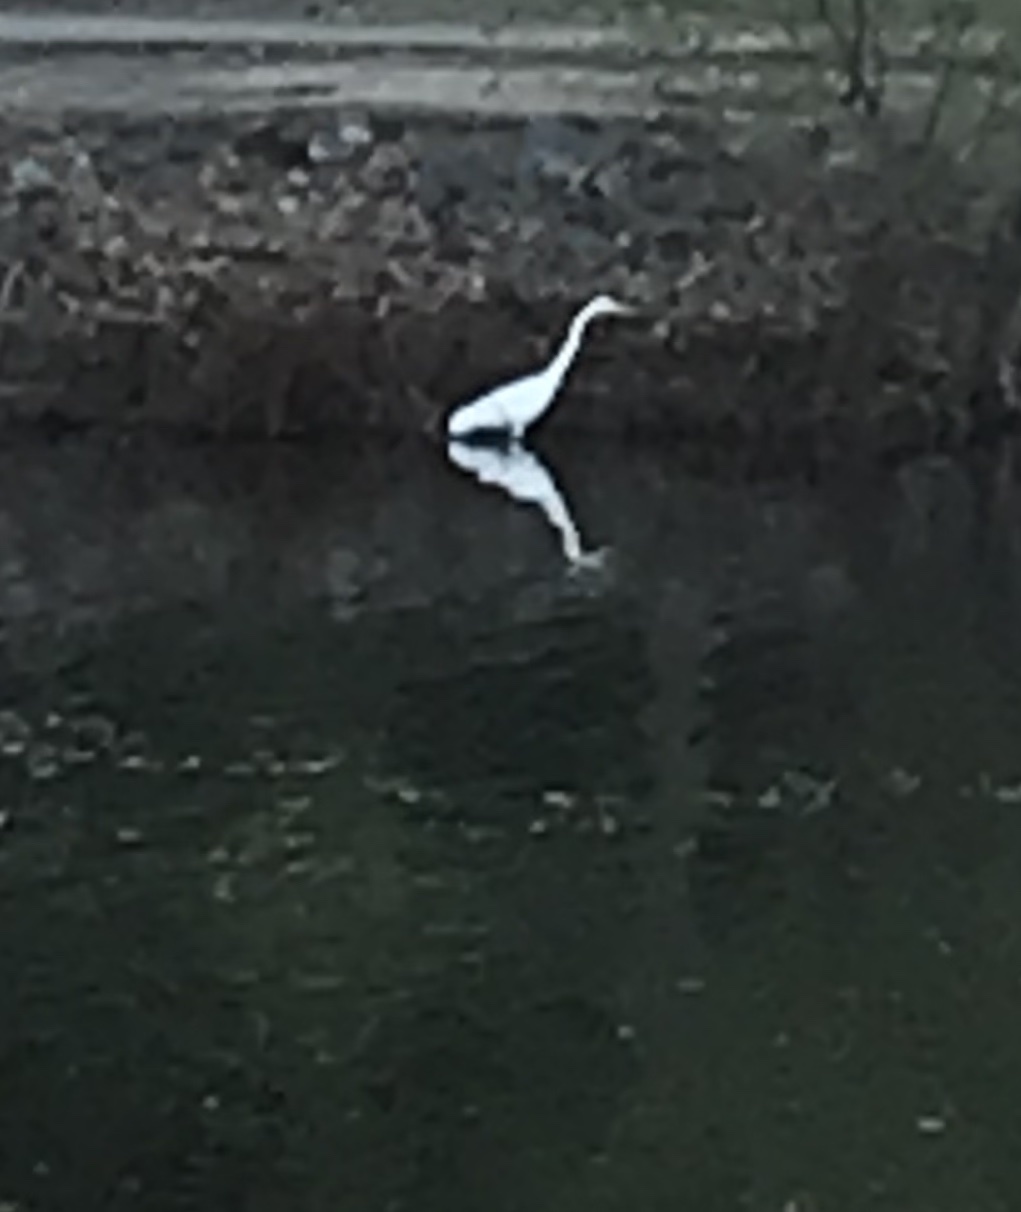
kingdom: Animalia
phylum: Chordata
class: Aves
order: Pelecaniformes
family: Ardeidae
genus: Ardea
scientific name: Ardea alba
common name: Great egret
